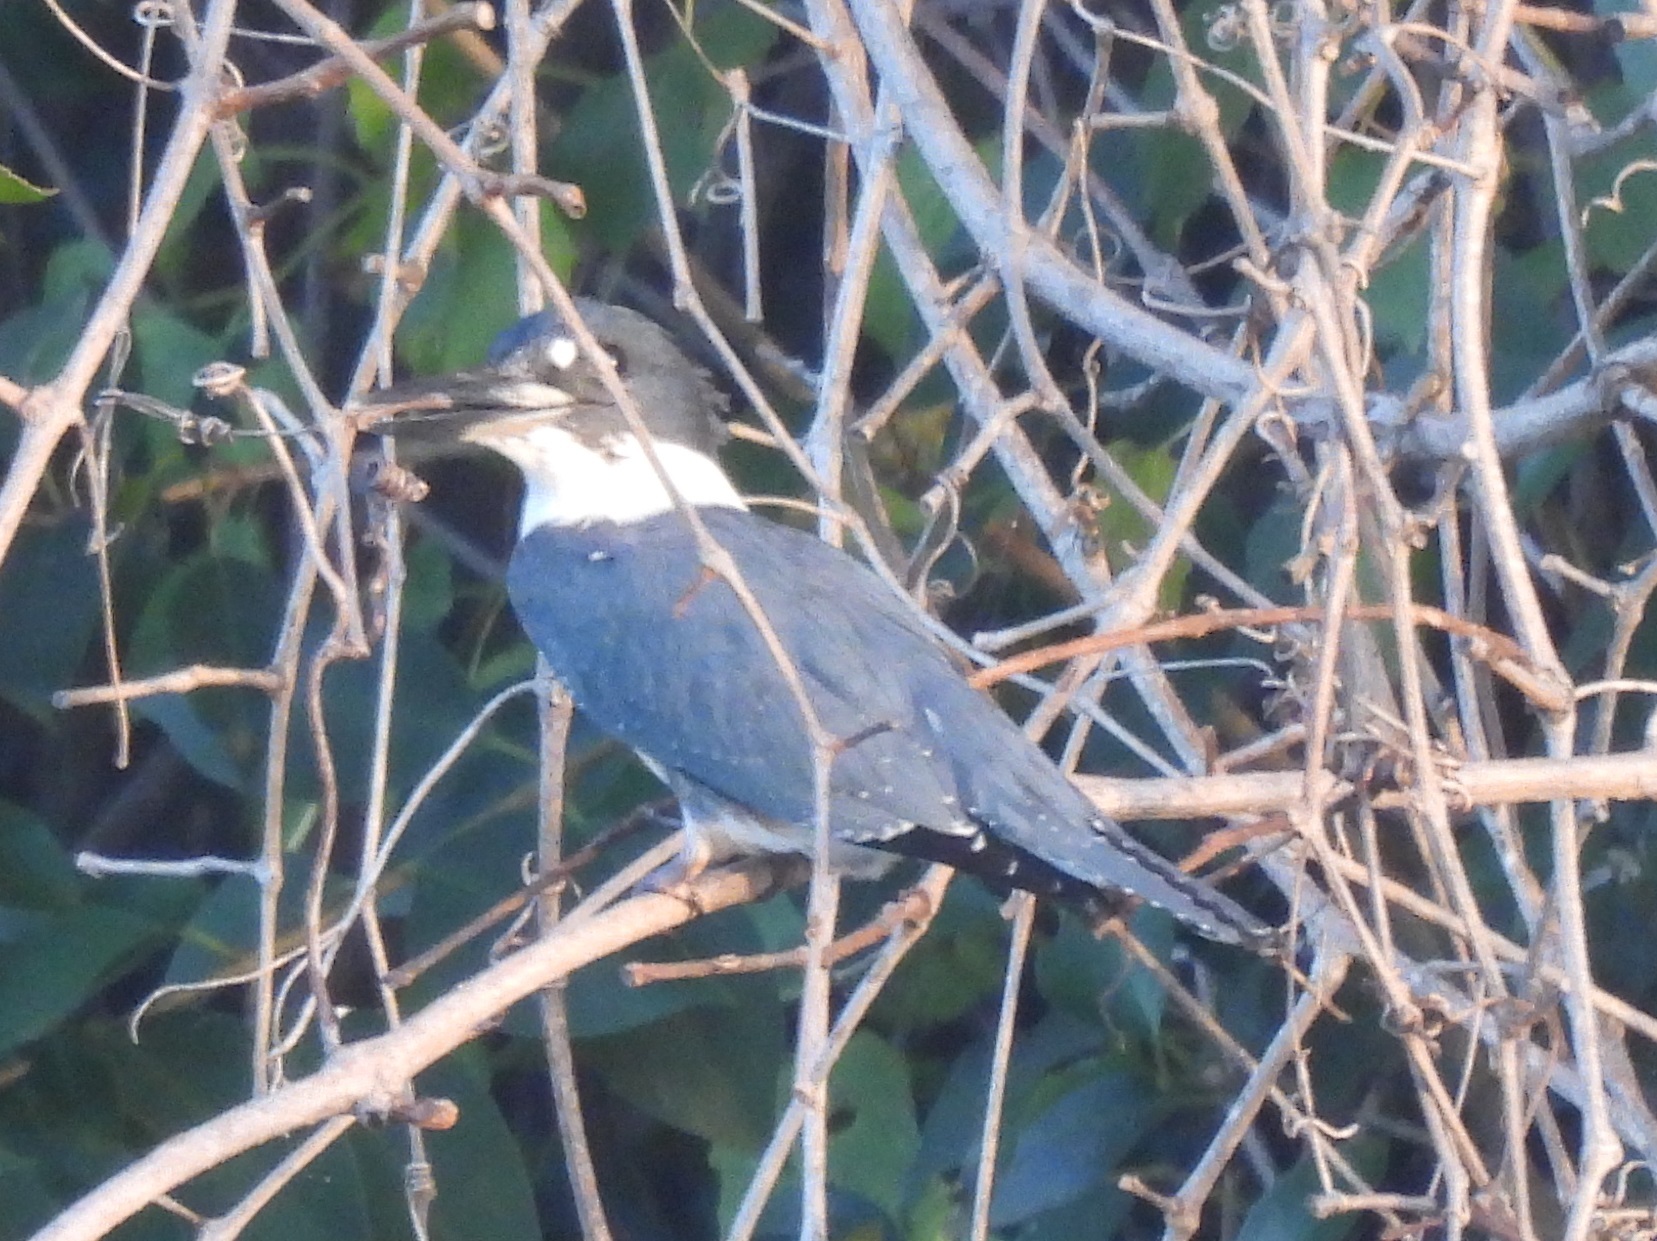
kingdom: Animalia
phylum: Chordata
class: Aves
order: Coraciiformes
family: Alcedinidae
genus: Megaceryle
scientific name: Megaceryle alcyon
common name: Belted kingfisher
